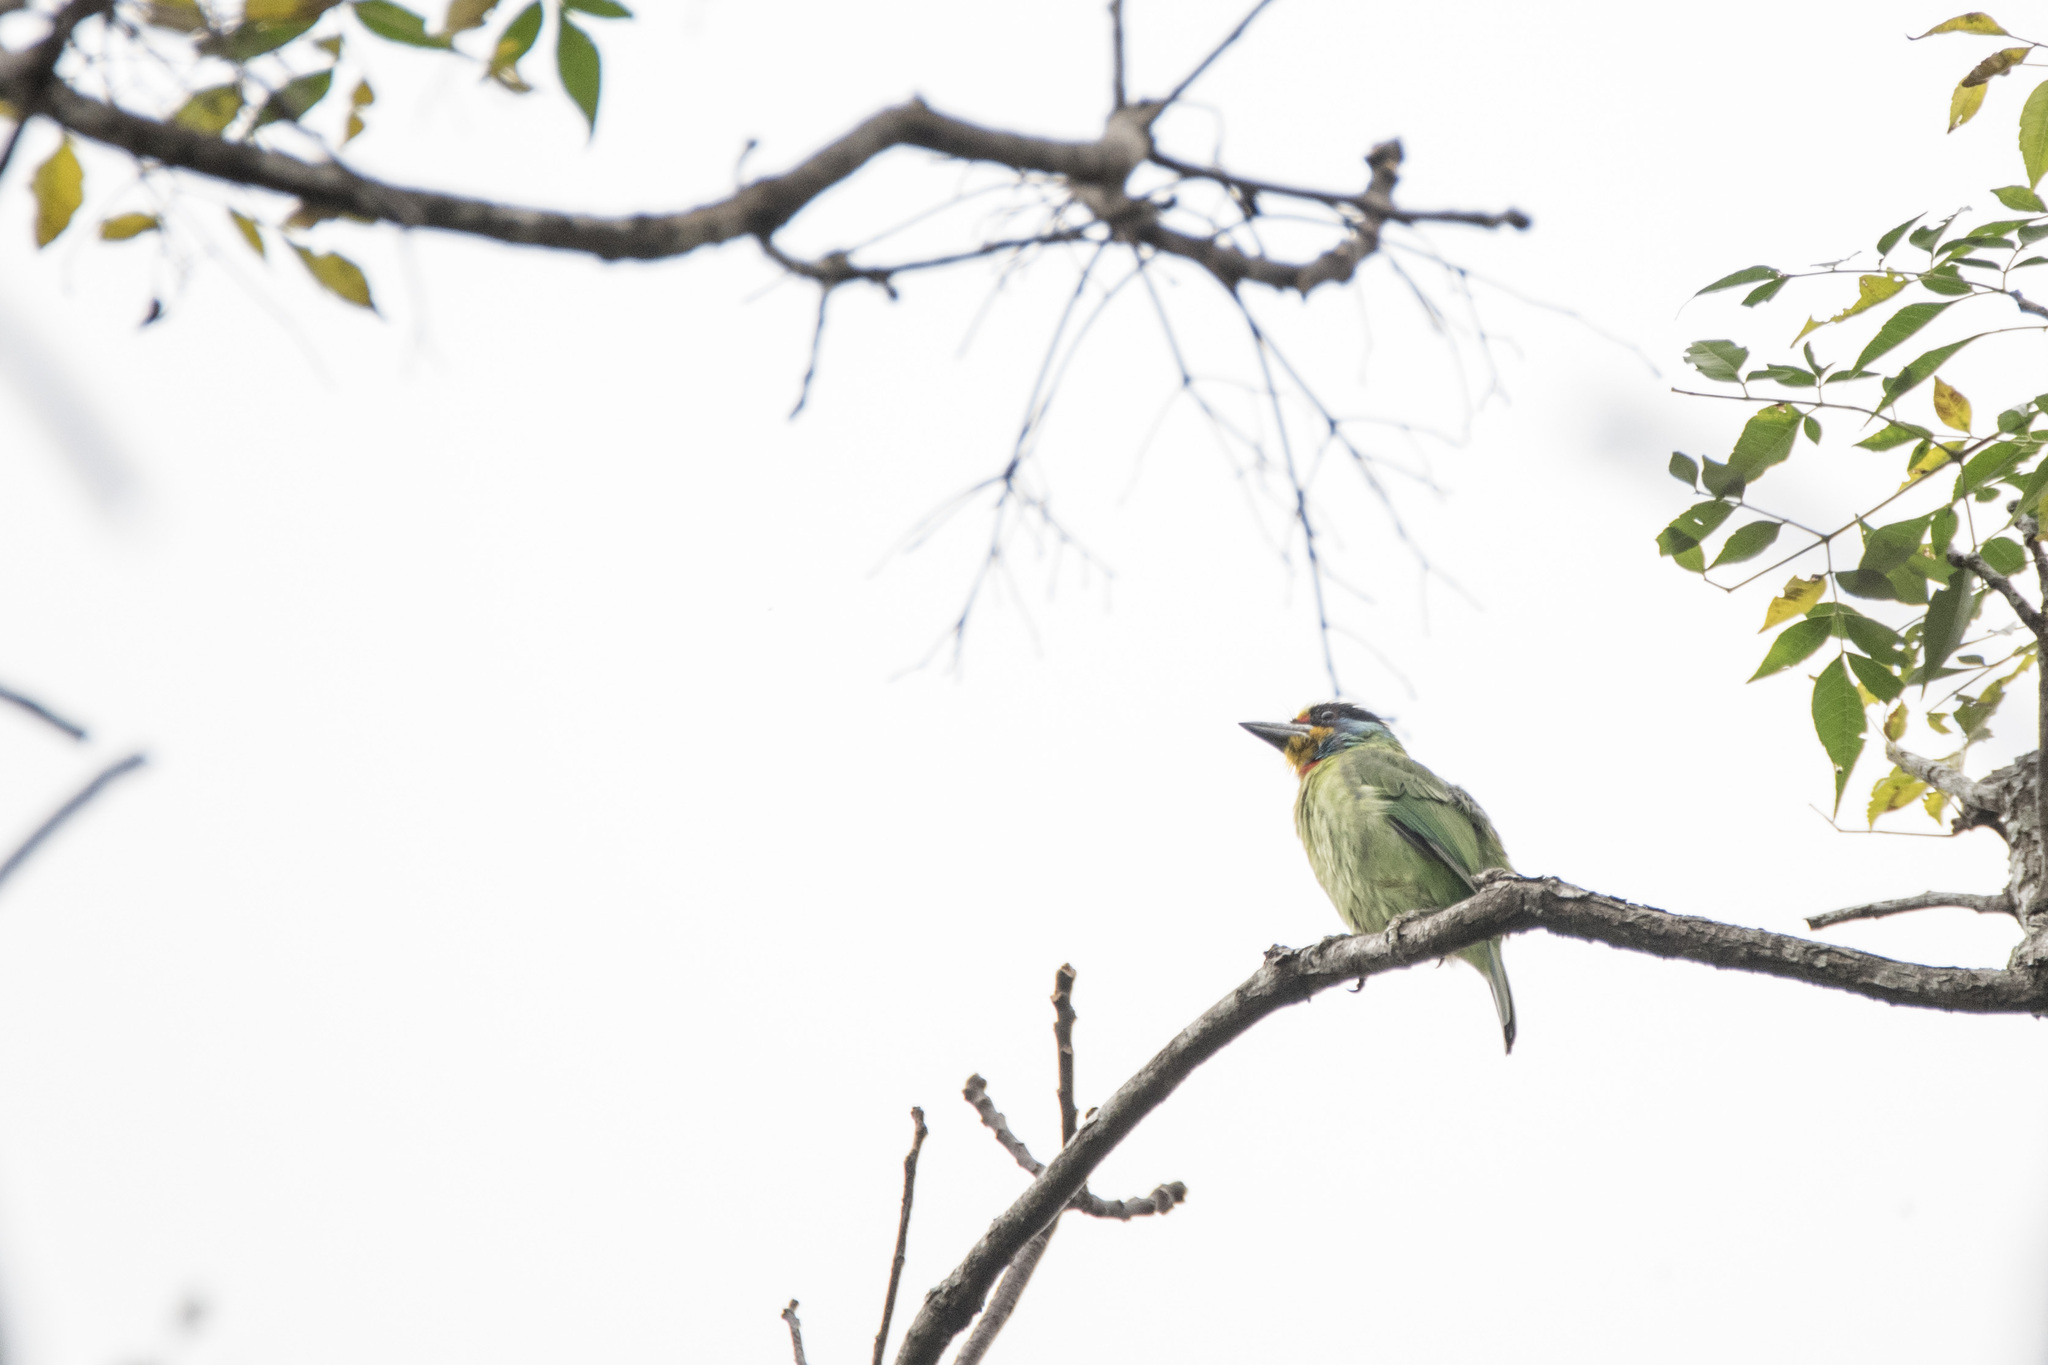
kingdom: Animalia
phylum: Chordata
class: Aves
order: Piciformes
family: Megalaimidae
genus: Psilopogon
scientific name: Psilopogon nuchalis
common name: Taiwan barbet
